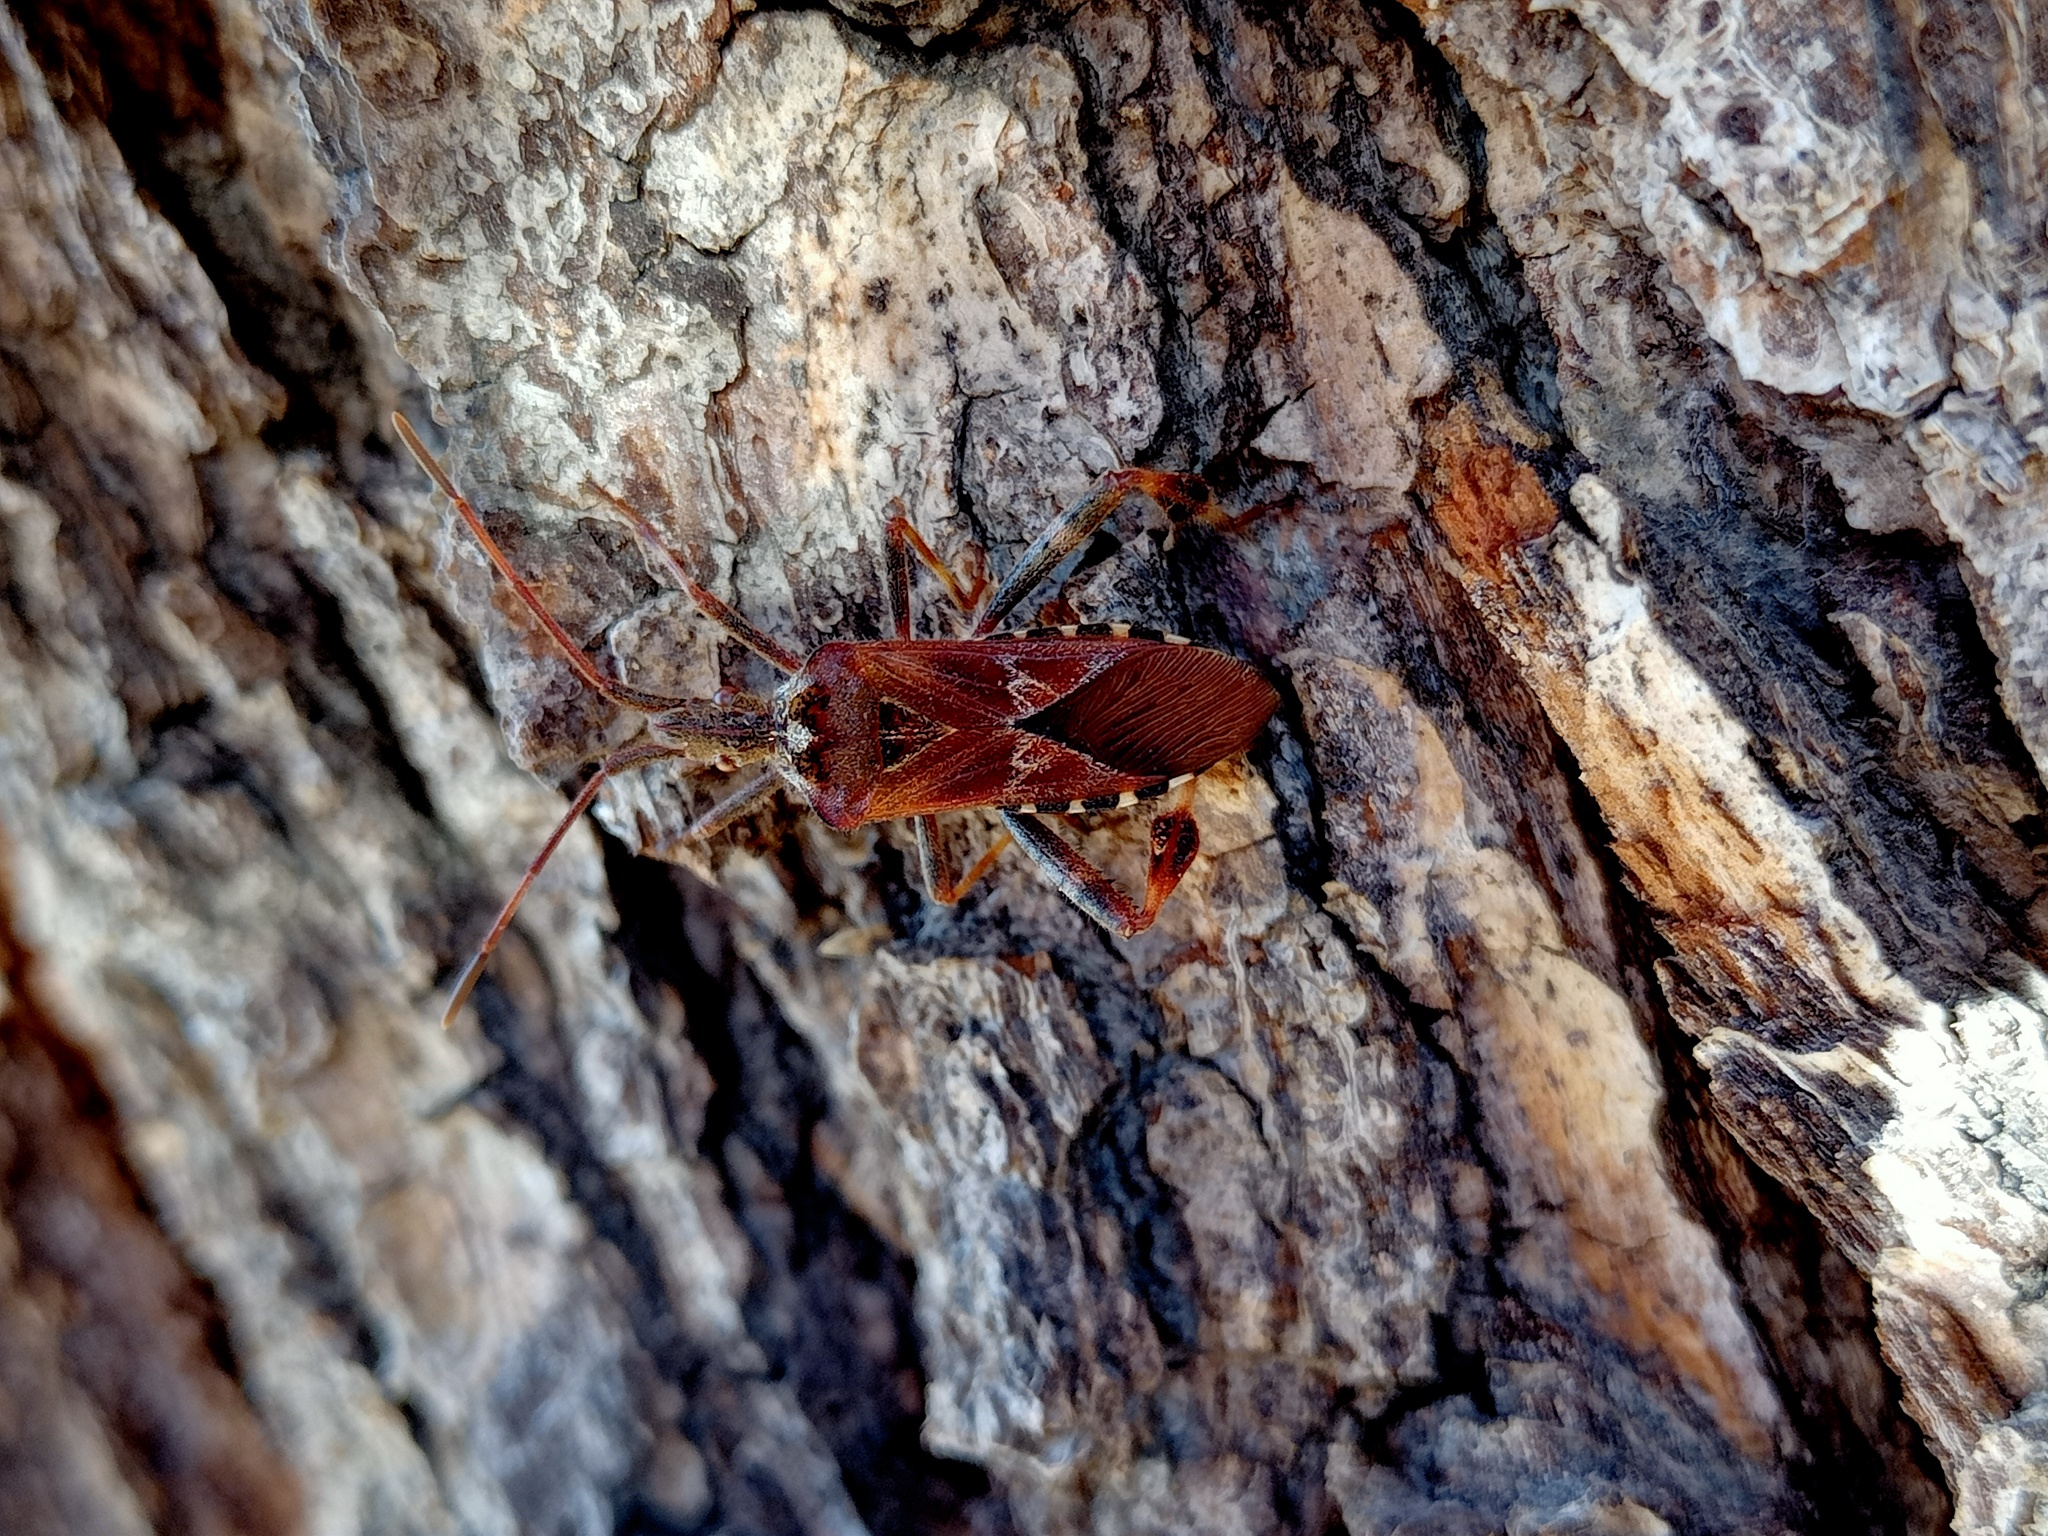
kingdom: Animalia
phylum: Arthropoda
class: Insecta
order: Hemiptera
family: Coreidae
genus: Leptoglossus
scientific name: Leptoglossus occidentalis
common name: Western conifer-seed bug
